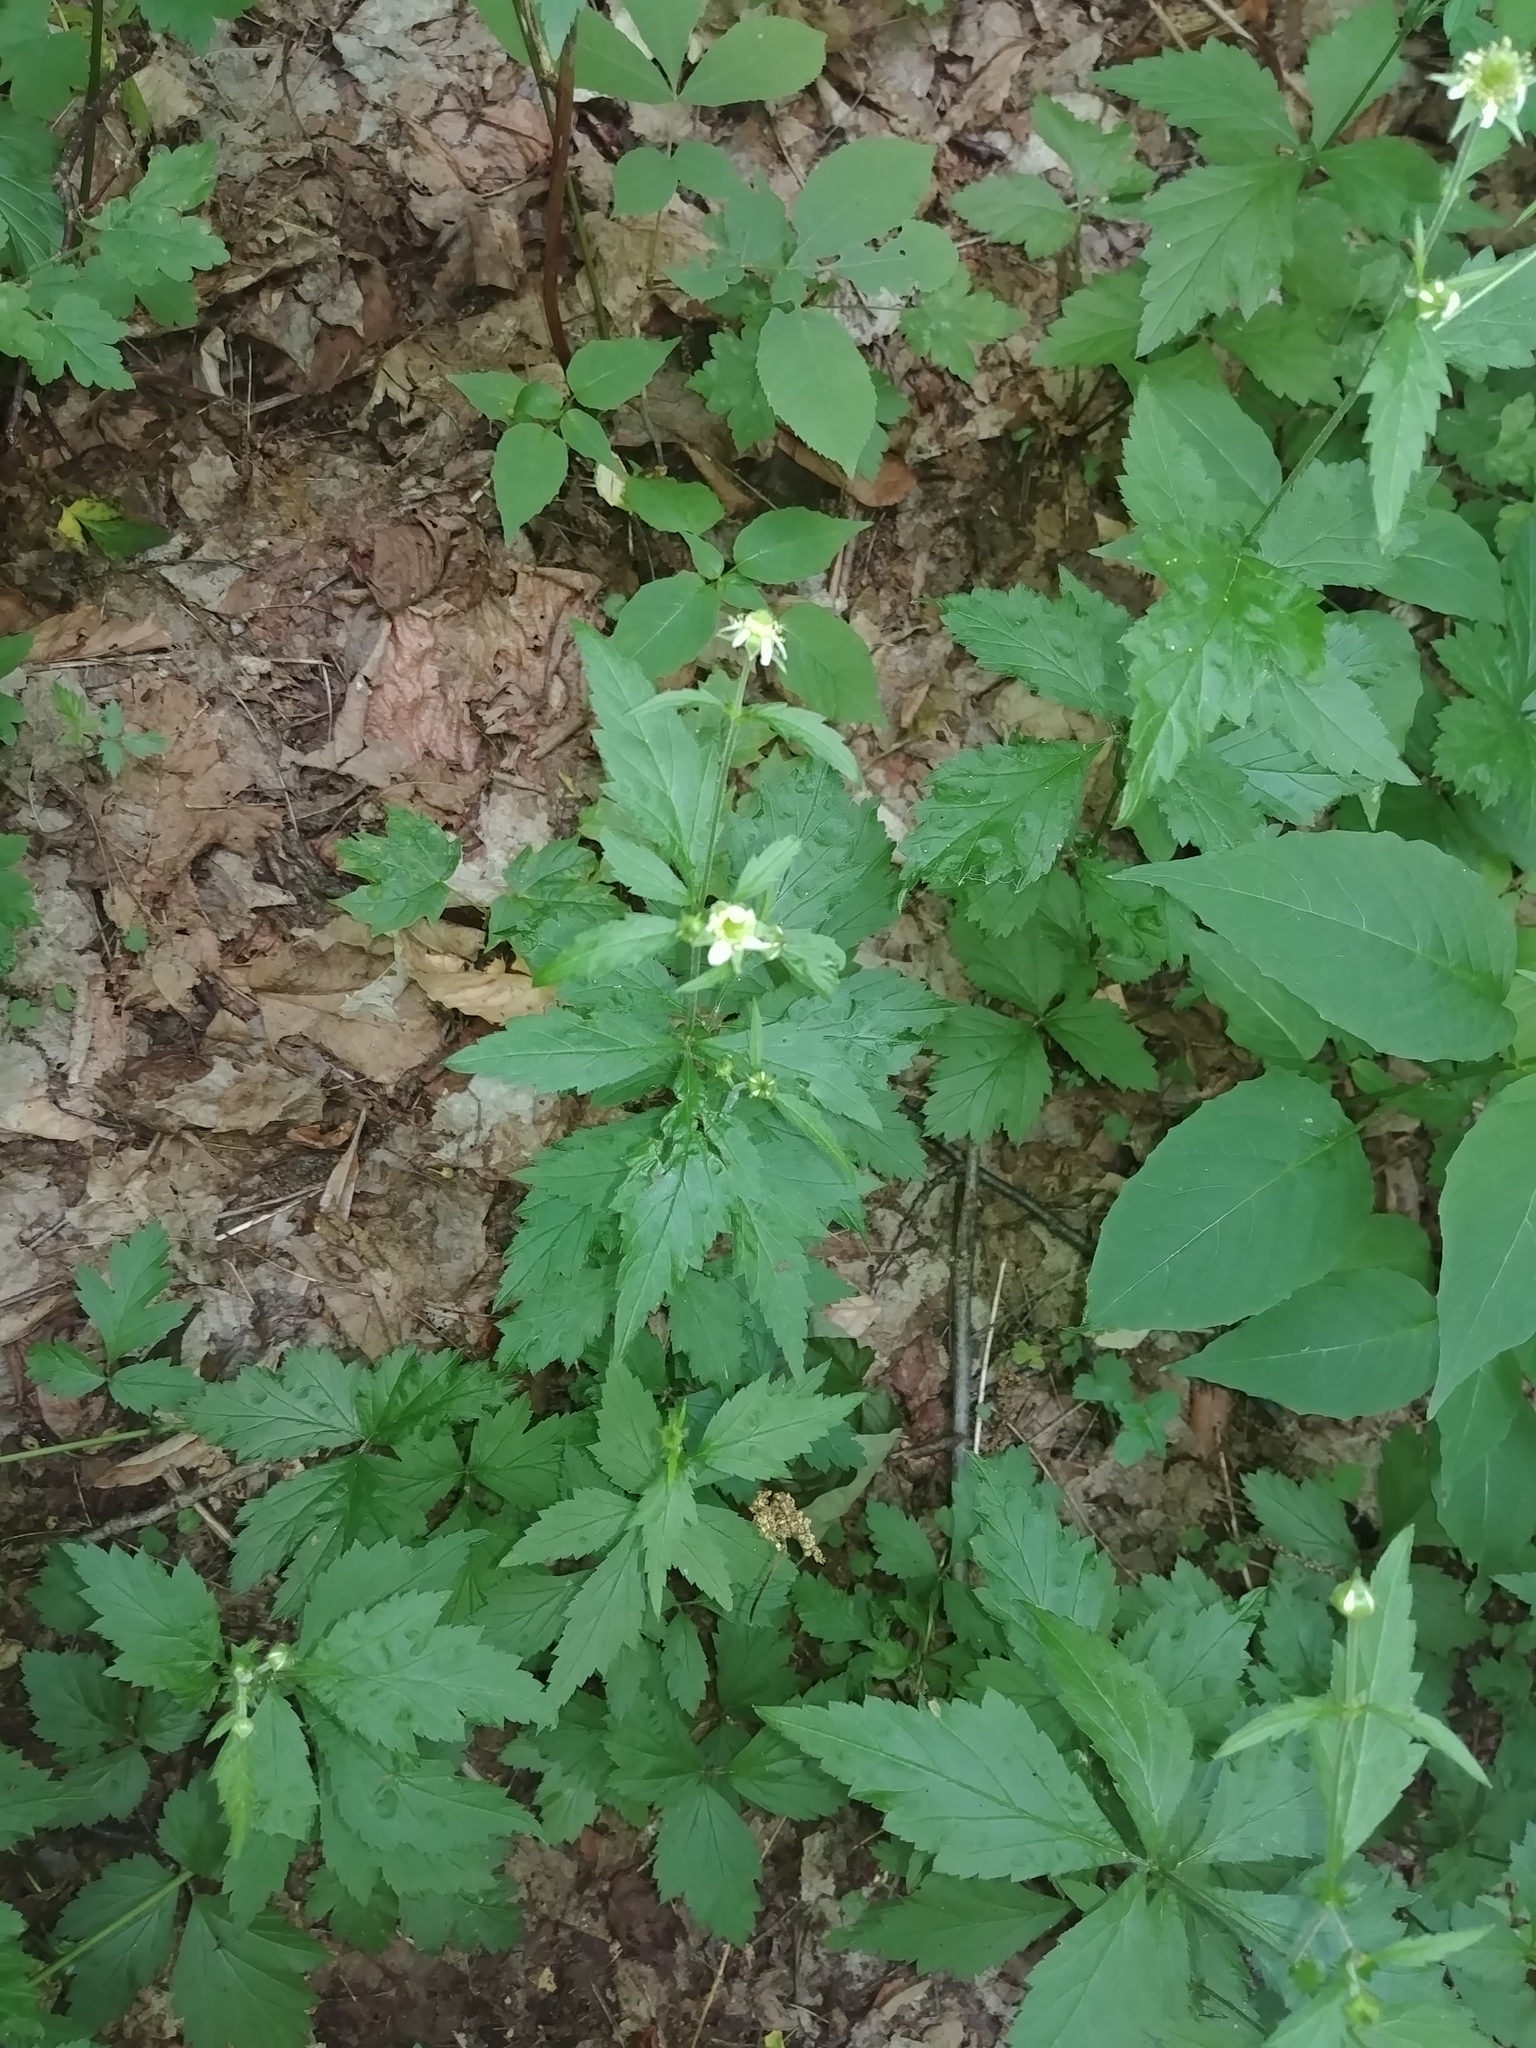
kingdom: Plantae
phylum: Tracheophyta
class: Magnoliopsida
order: Rosales
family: Rosaceae
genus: Geum
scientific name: Geum canadense
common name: White avens
